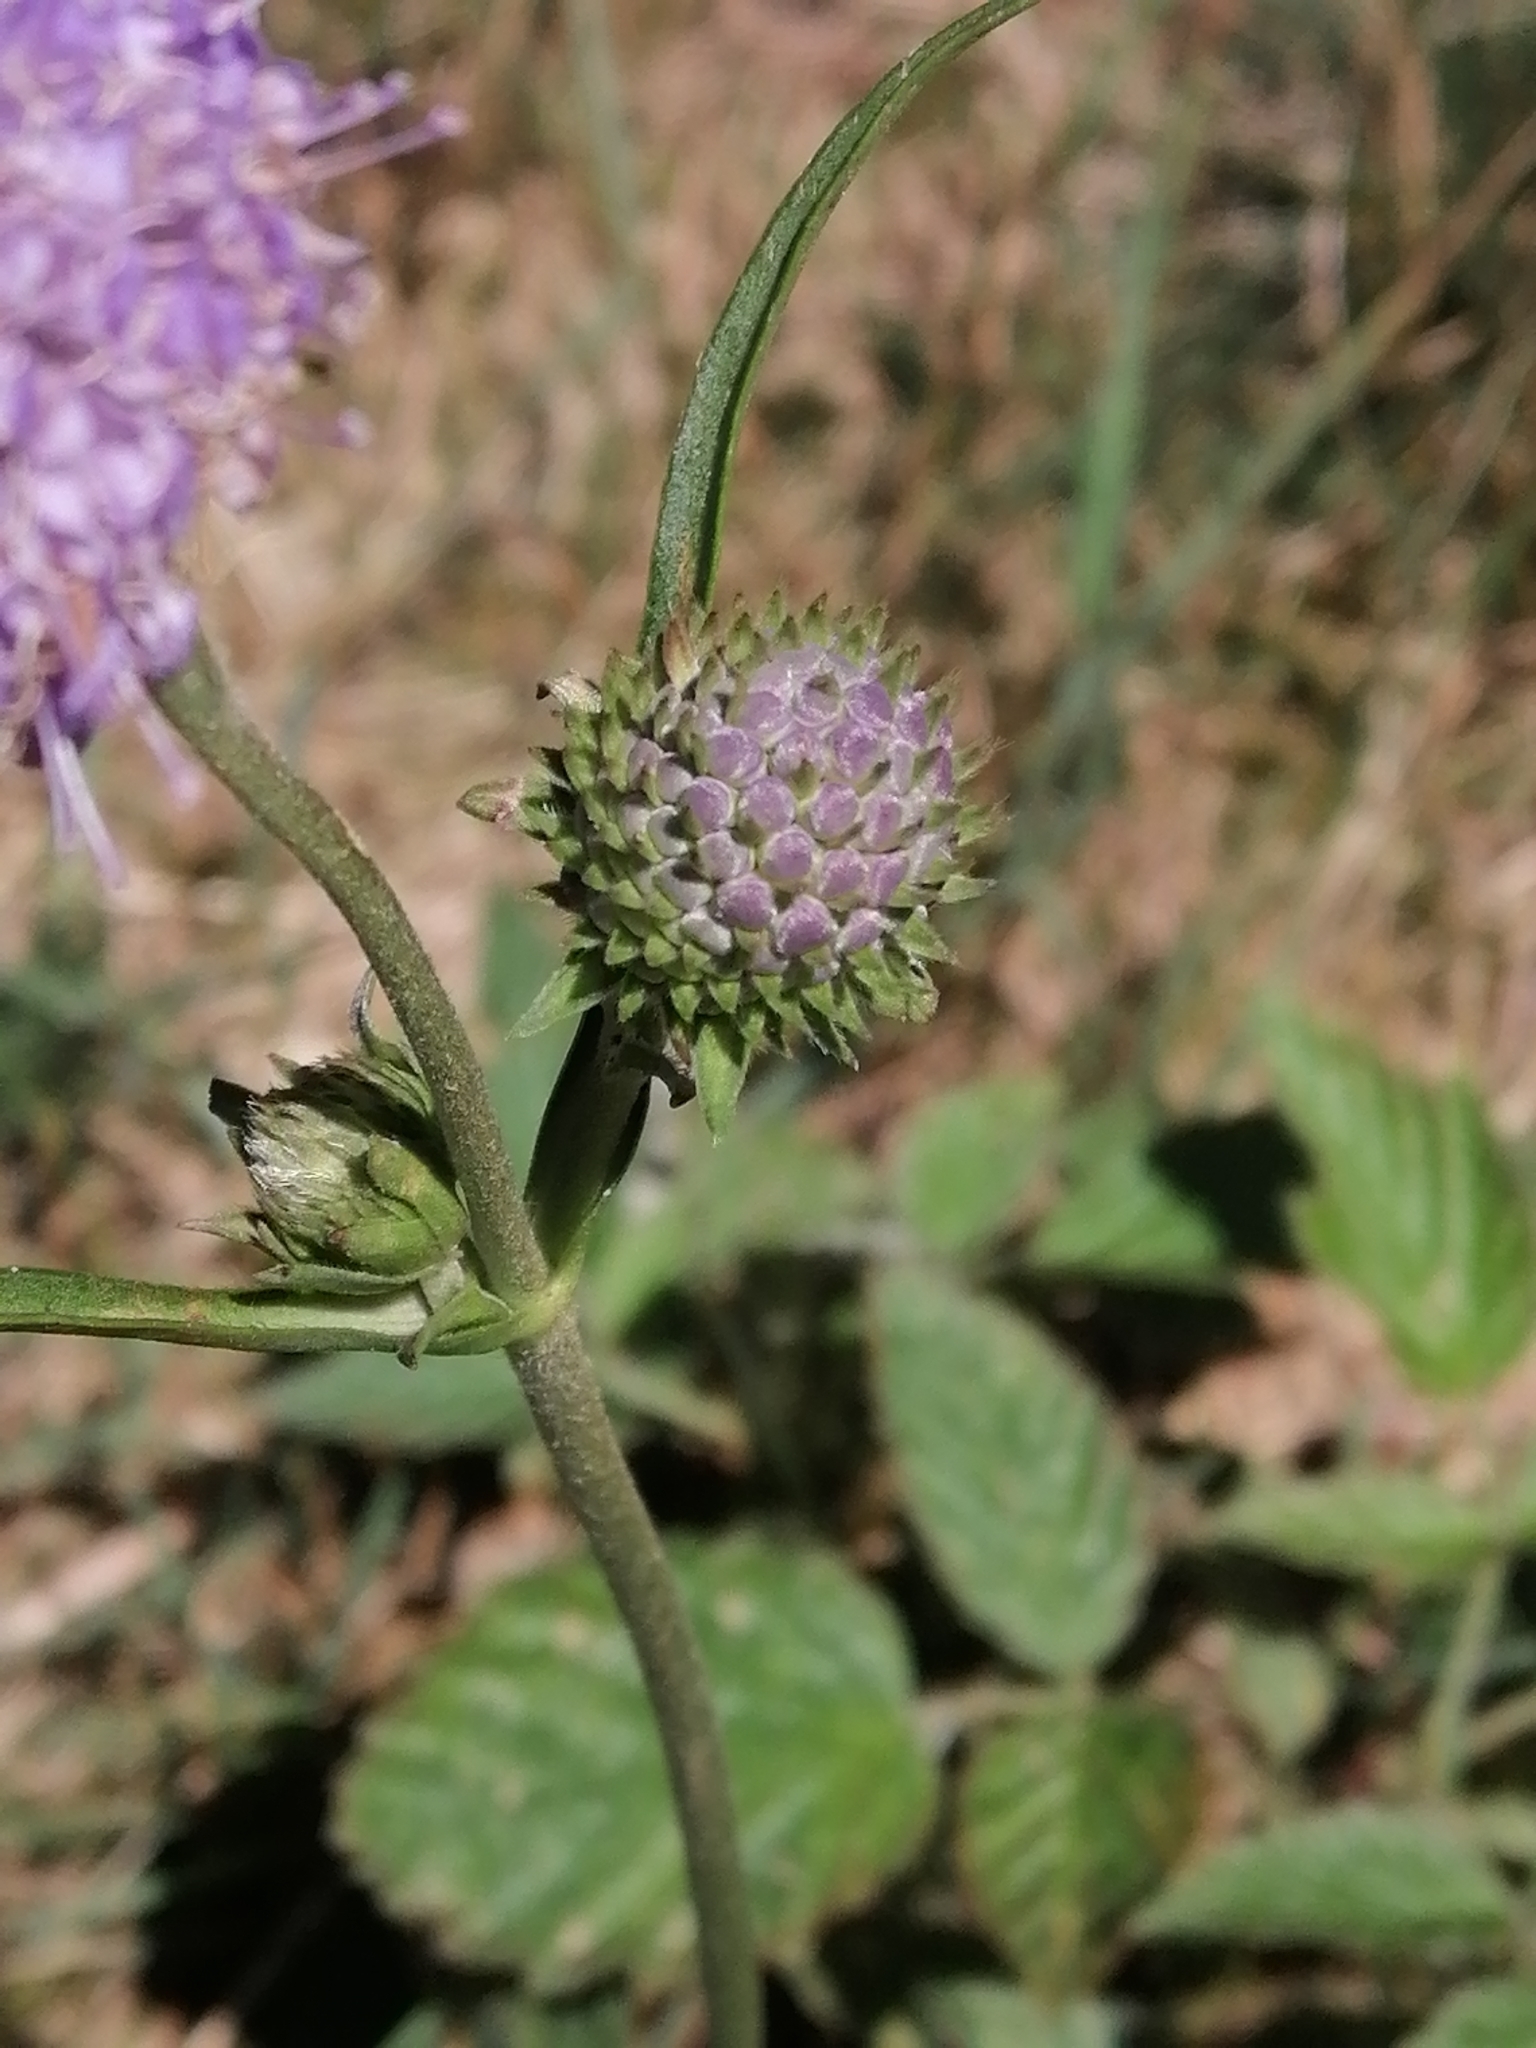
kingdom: Plantae
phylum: Tracheophyta
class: Magnoliopsida
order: Dipsacales
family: Caprifoliaceae
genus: Succisa
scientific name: Succisa pratensis
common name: Devil's-bit
